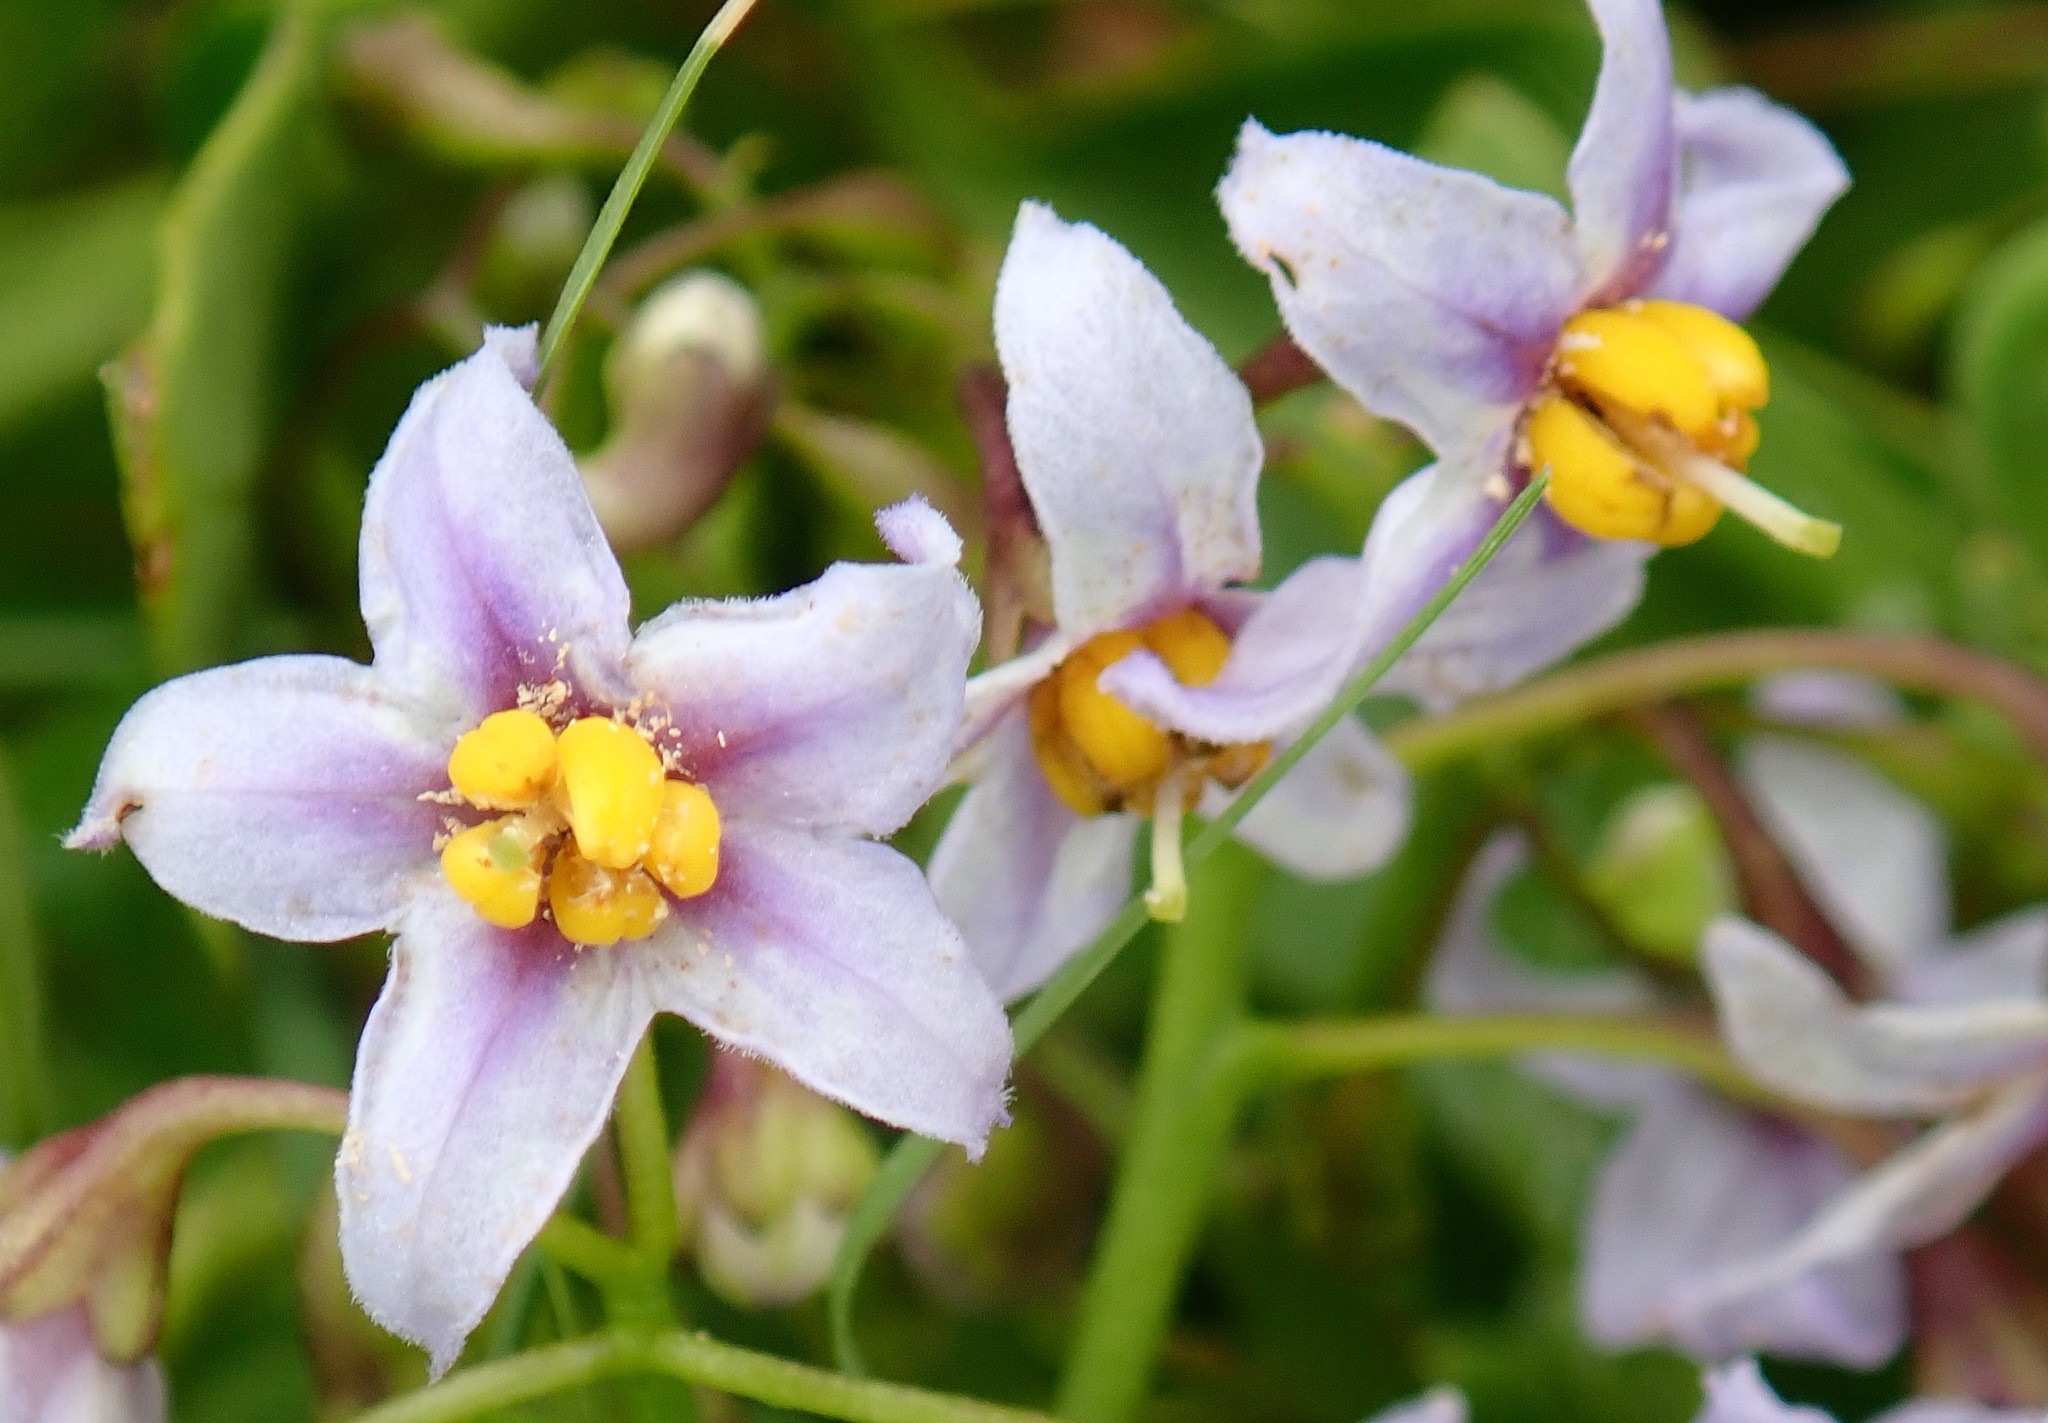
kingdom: Plantae
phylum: Tracheophyta
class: Magnoliopsida
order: Solanales
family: Solanaceae
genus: Solanum
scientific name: Solanum africanum
